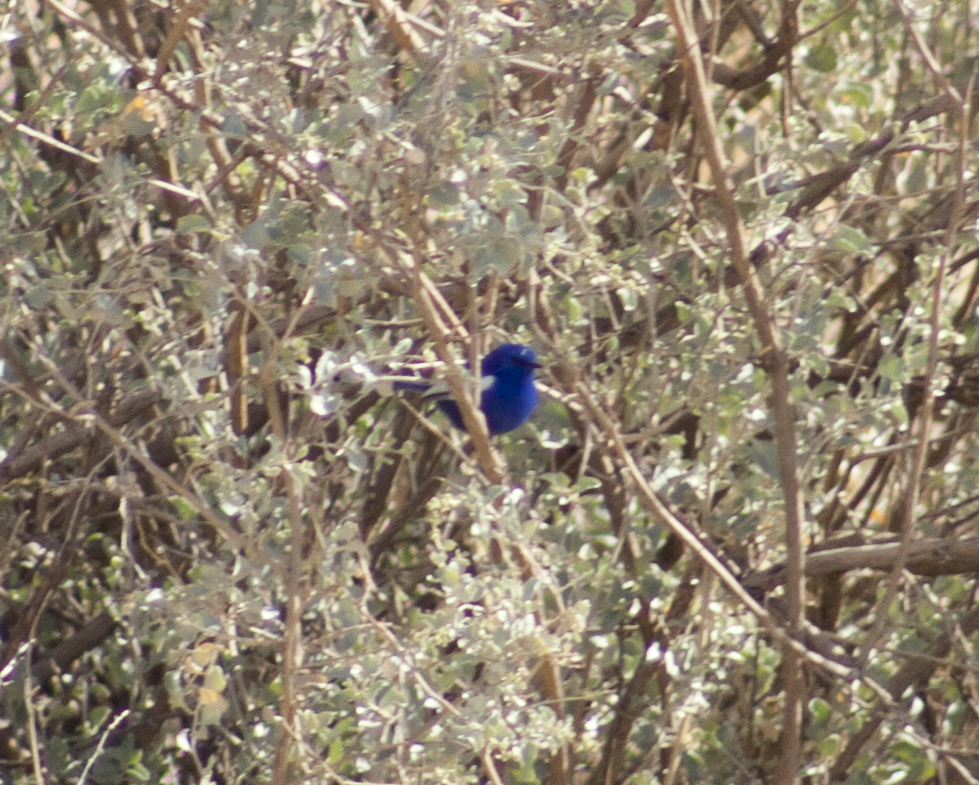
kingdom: Animalia
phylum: Chordata
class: Aves
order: Passeriformes
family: Maluridae
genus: Malurus
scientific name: Malurus leucopterus
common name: White-winged fairywren
